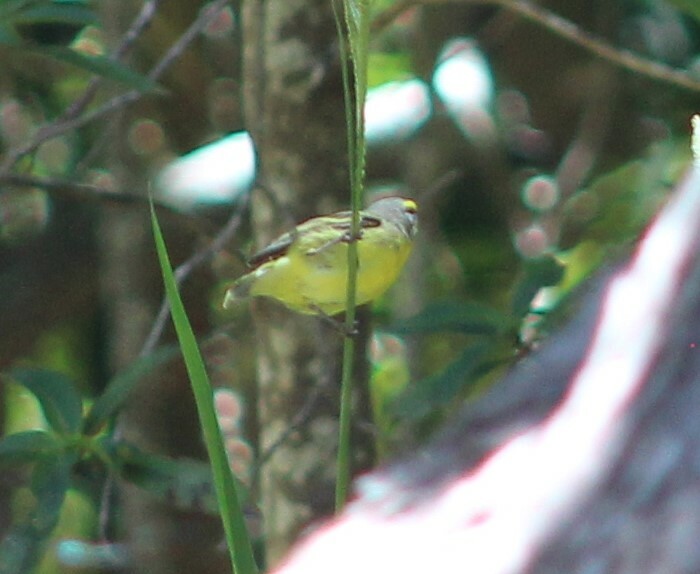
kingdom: Animalia
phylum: Chordata
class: Aves
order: Passeriformes
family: Fringillidae
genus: Crithagra
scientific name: Crithagra mozambica
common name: Yellow-fronted canary
